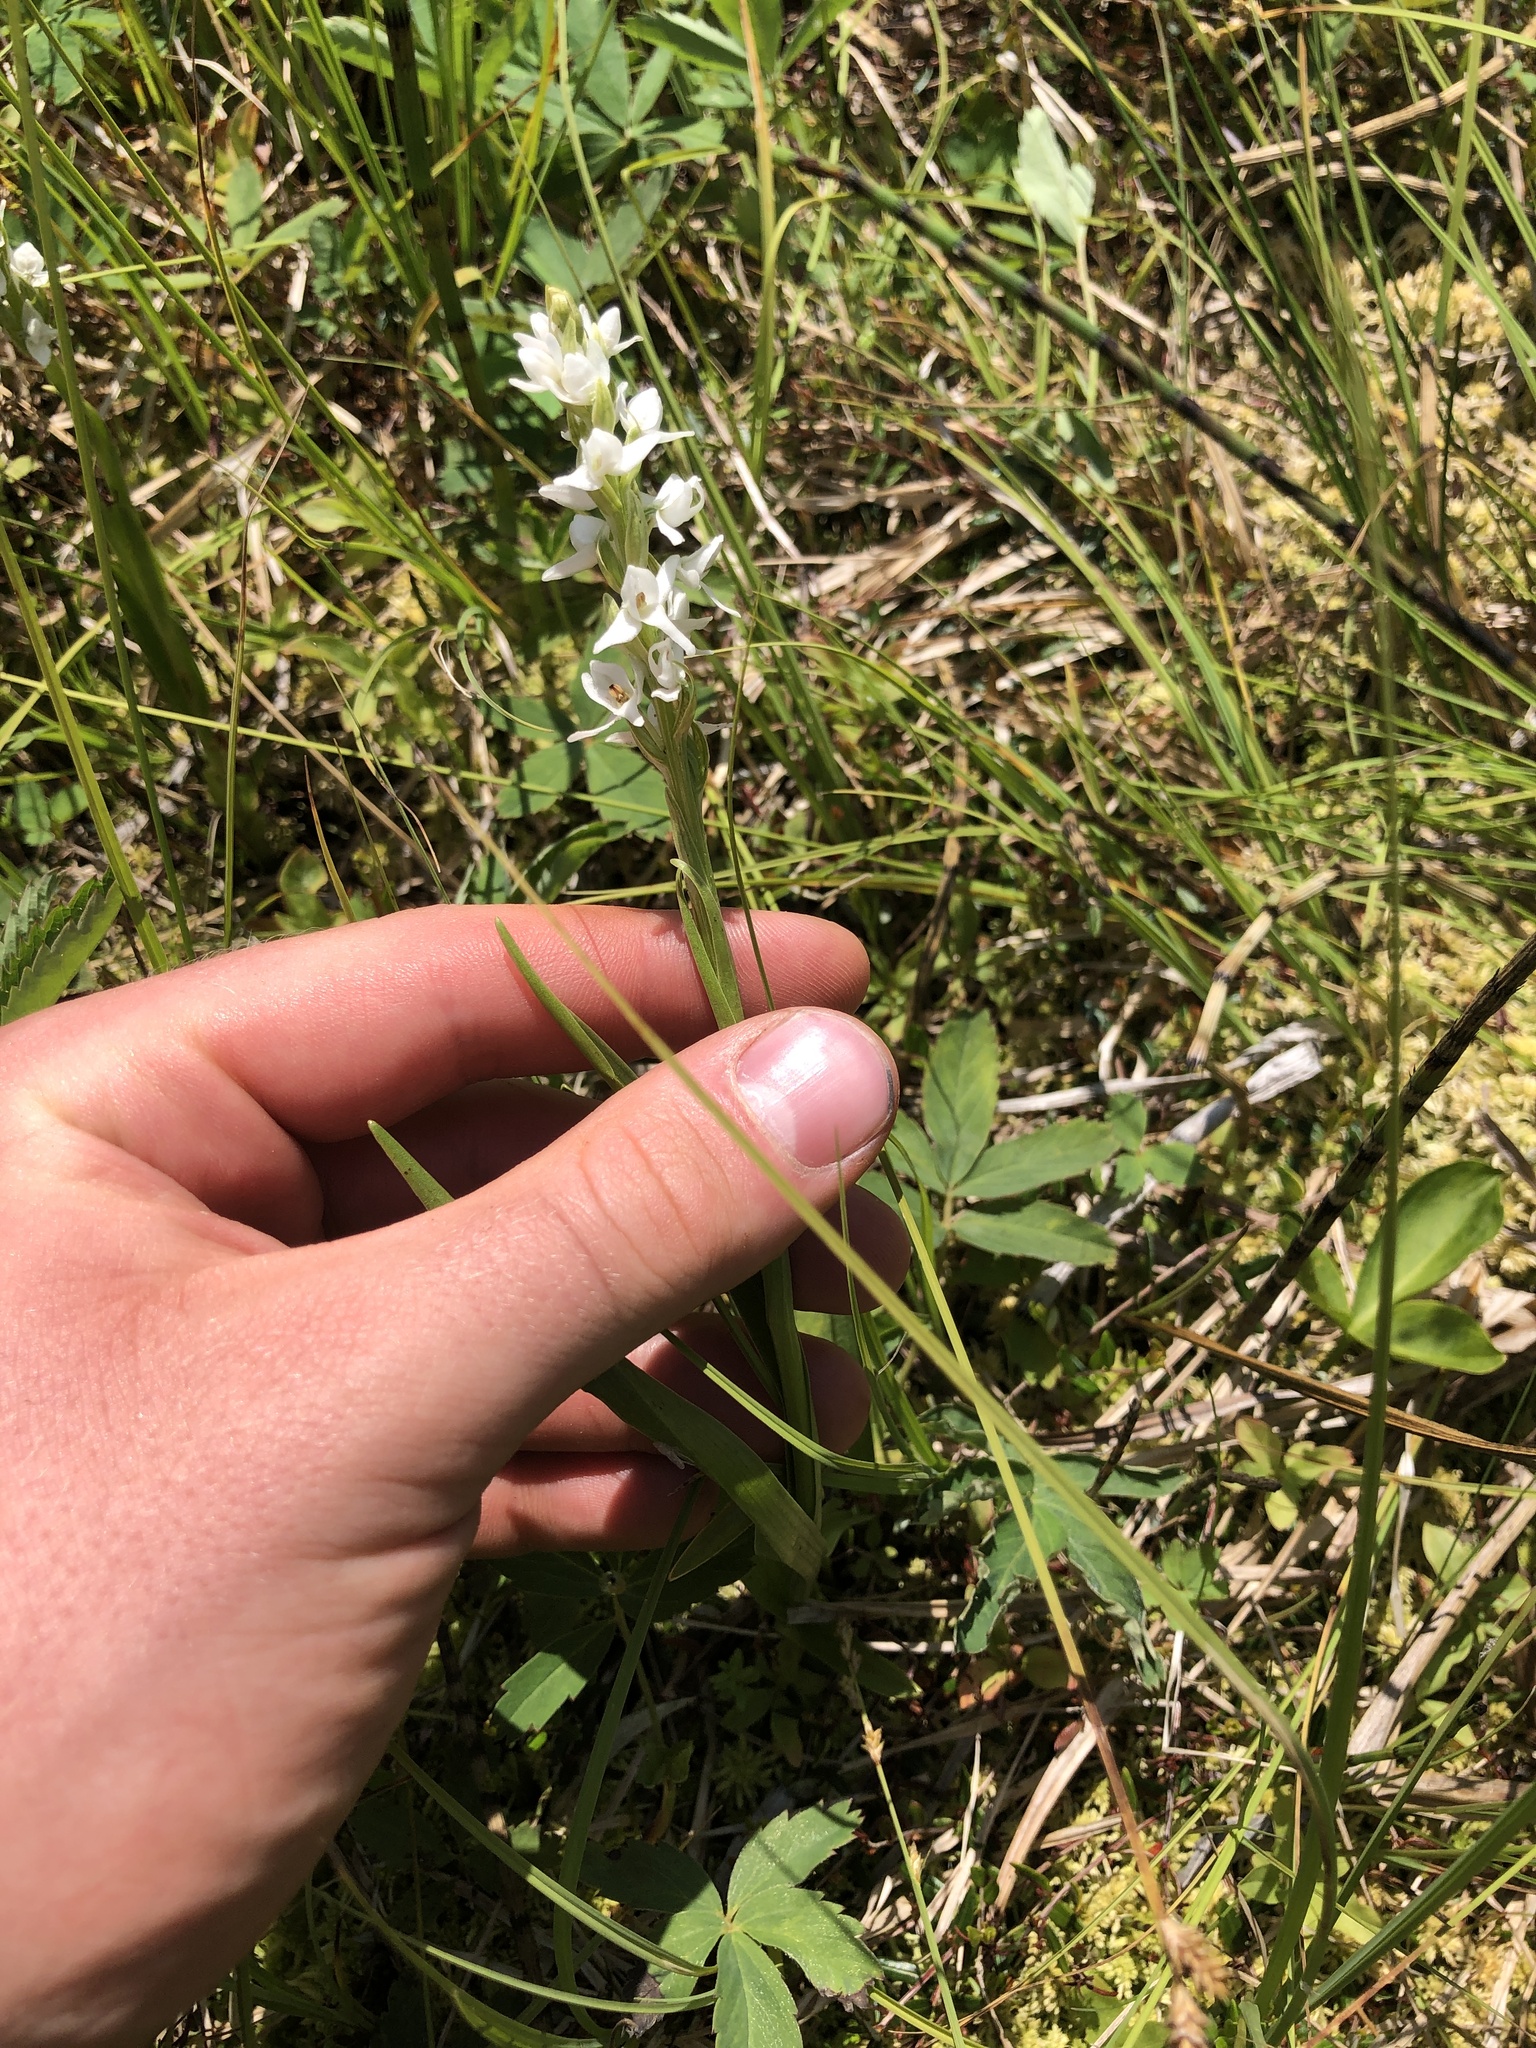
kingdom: Plantae
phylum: Tracheophyta
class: Liliopsida
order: Asparagales
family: Orchidaceae
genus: Platanthera
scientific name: Platanthera dilatata
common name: Bog candles
